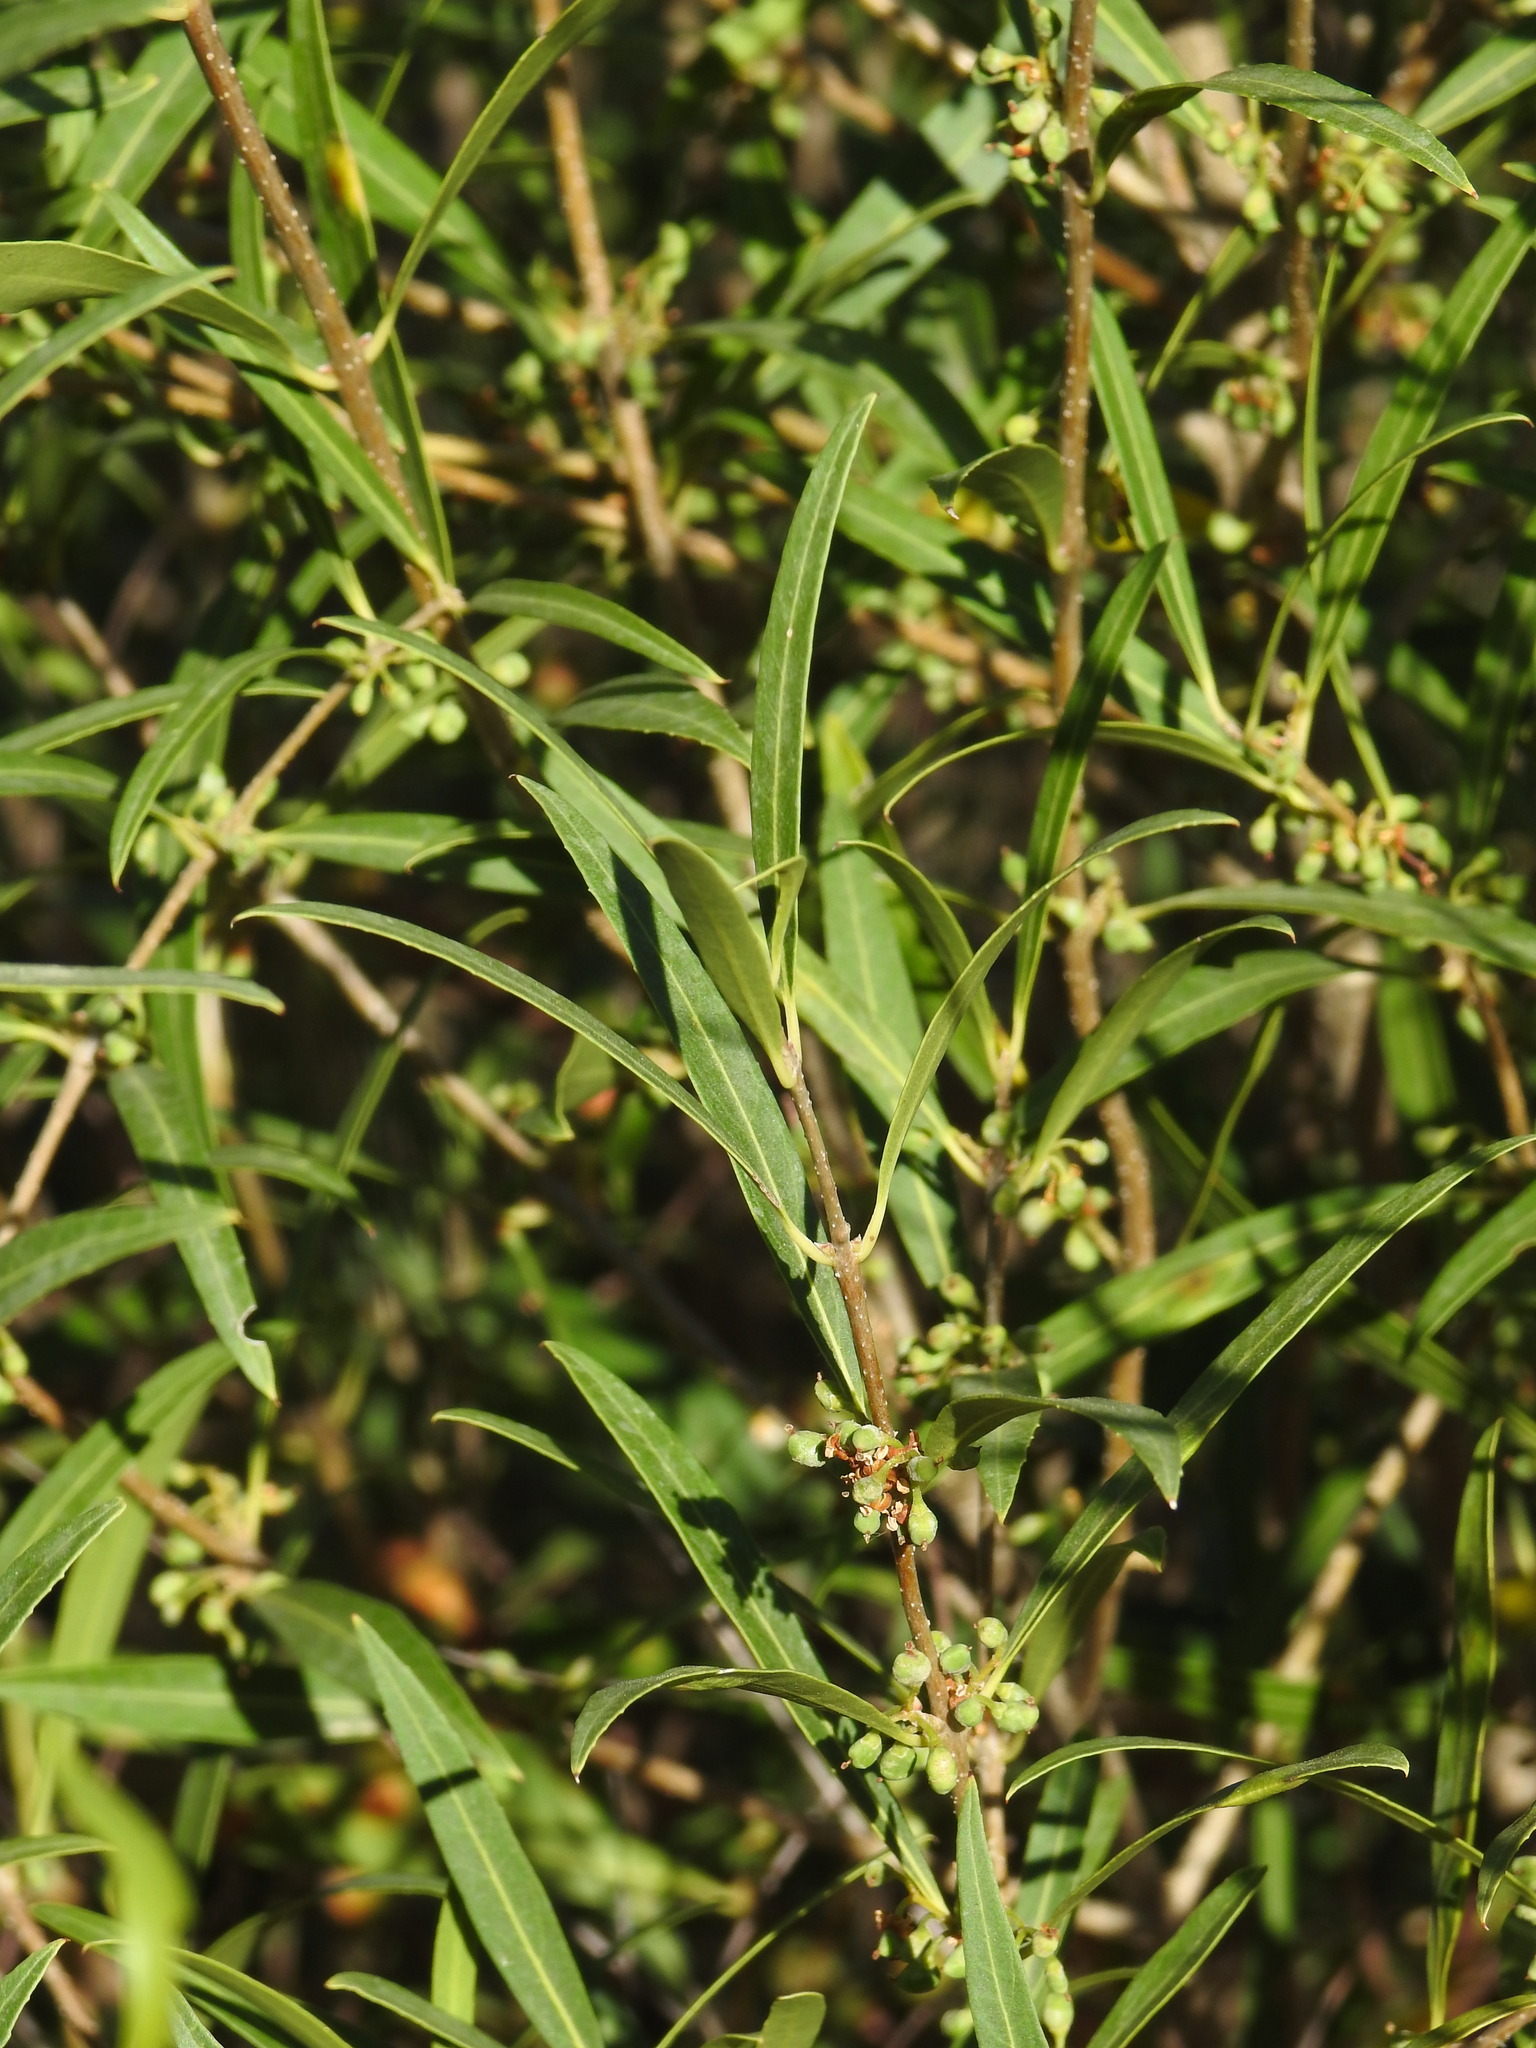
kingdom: Plantae
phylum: Tracheophyta
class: Magnoliopsida
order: Lamiales
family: Oleaceae
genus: Phillyrea
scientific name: Phillyrea angustifolia
